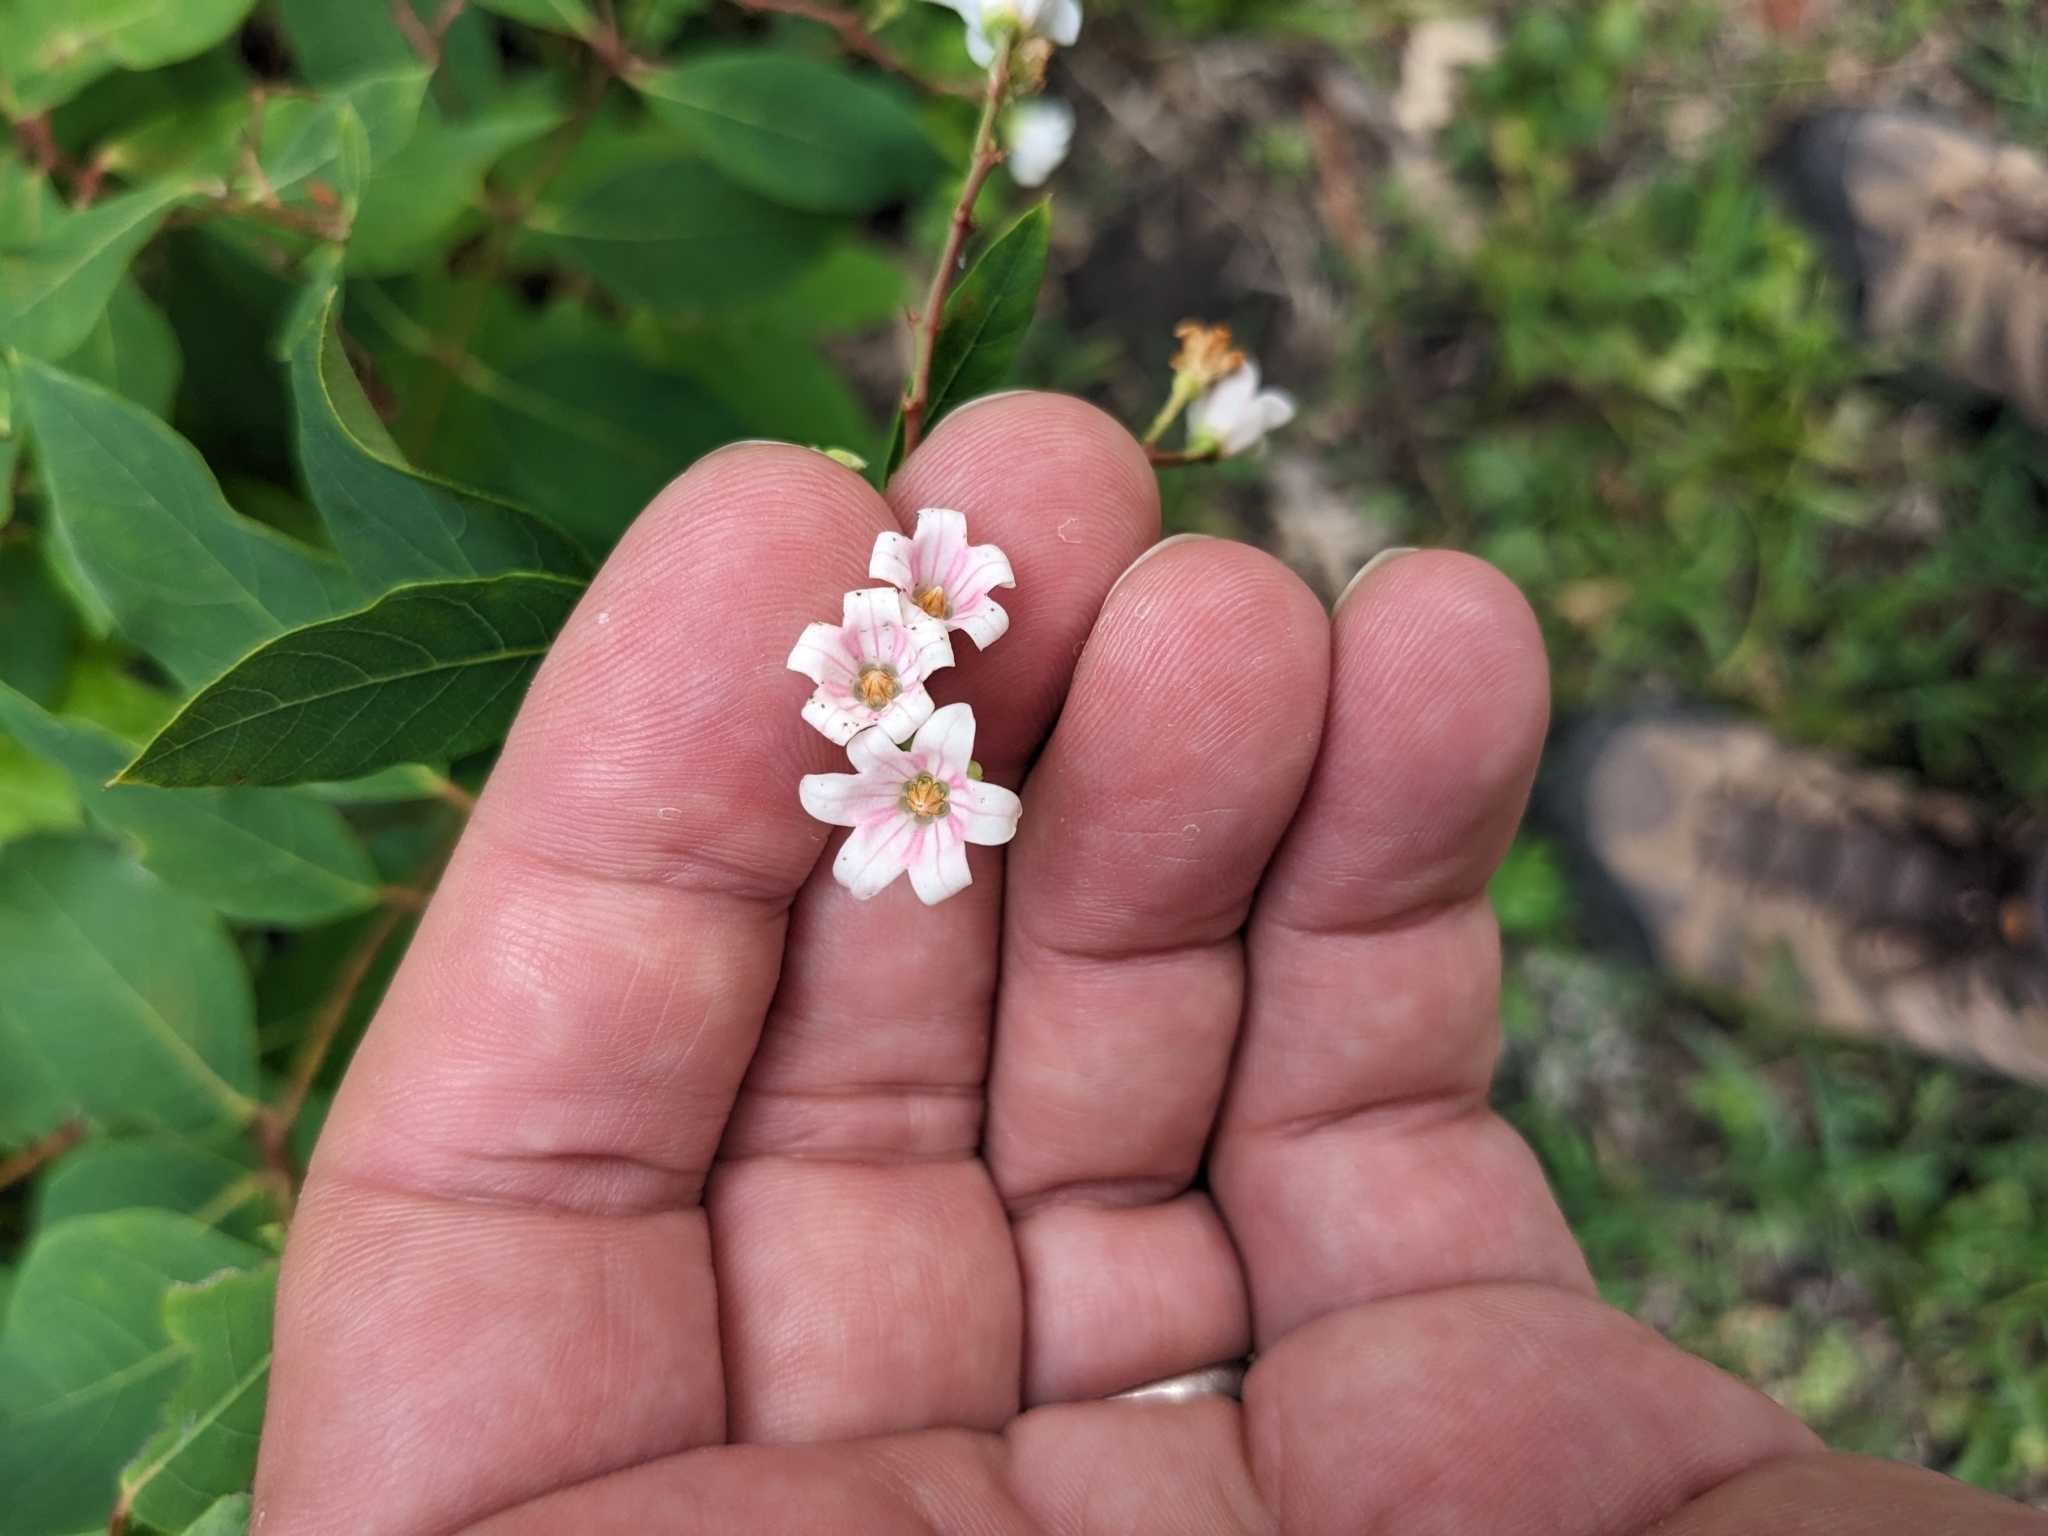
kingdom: Plantae
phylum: Tracheophyta
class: Magnoliopsida
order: Gentianales
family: Apocynaceae
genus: Apocynum
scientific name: Apocynum androsaemifolium
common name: Spreading dogbane
